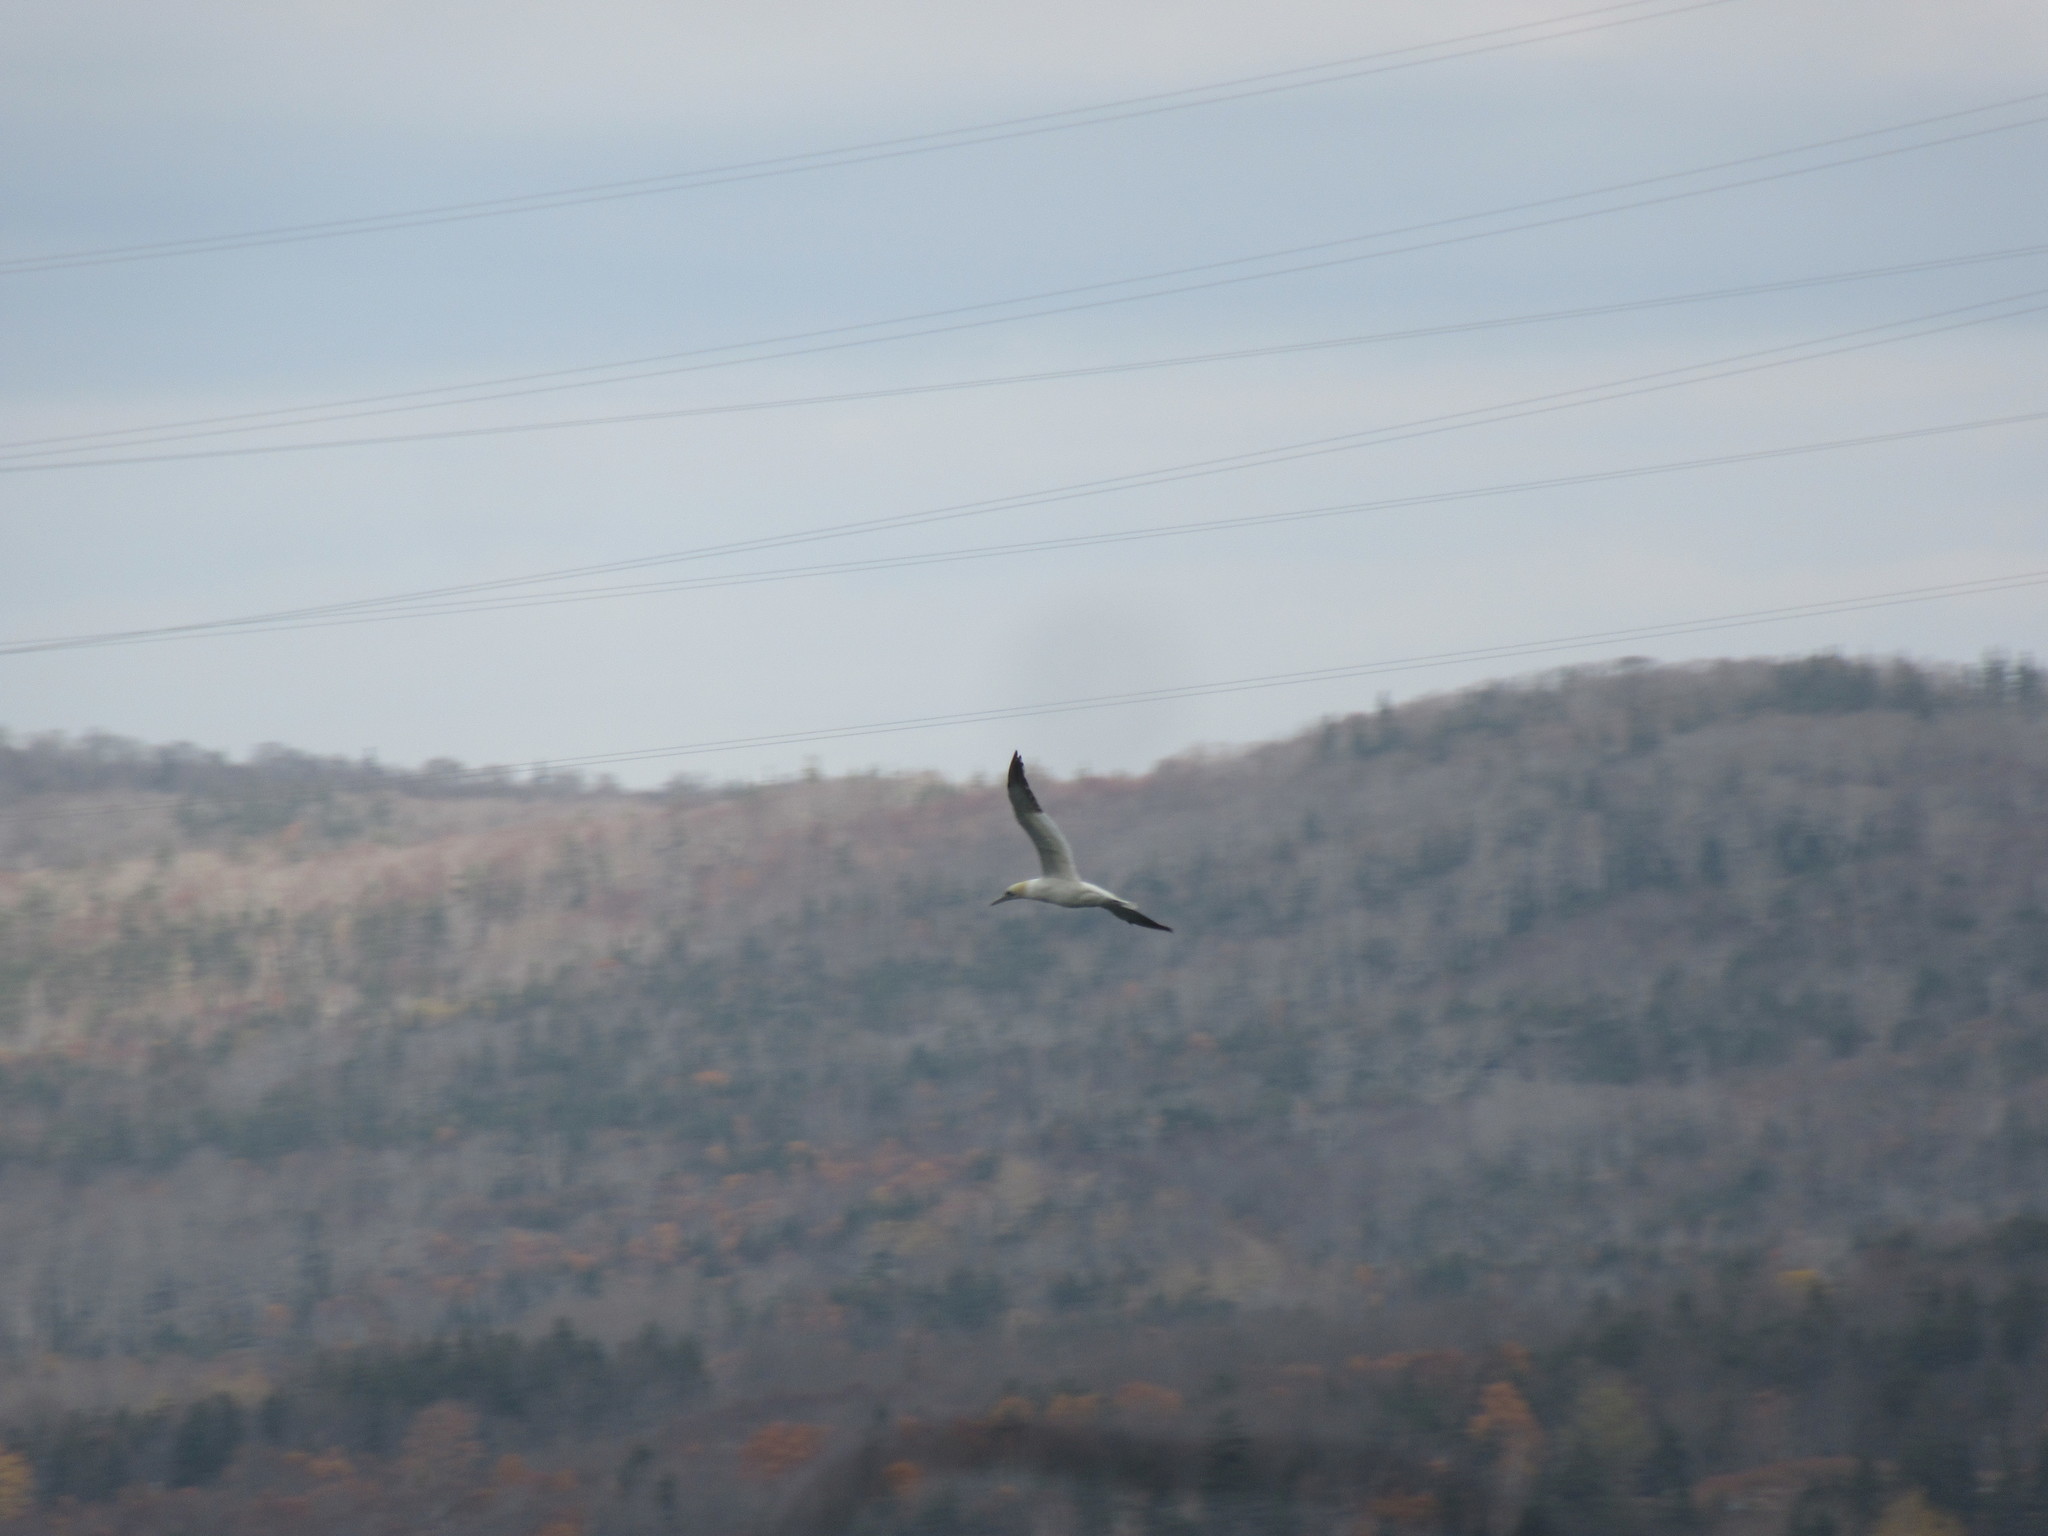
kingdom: Animalia
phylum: Chordata
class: Aves
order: Suliformes
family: Sulidae
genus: Morus
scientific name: Morus bassanus
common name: Northern gannet
